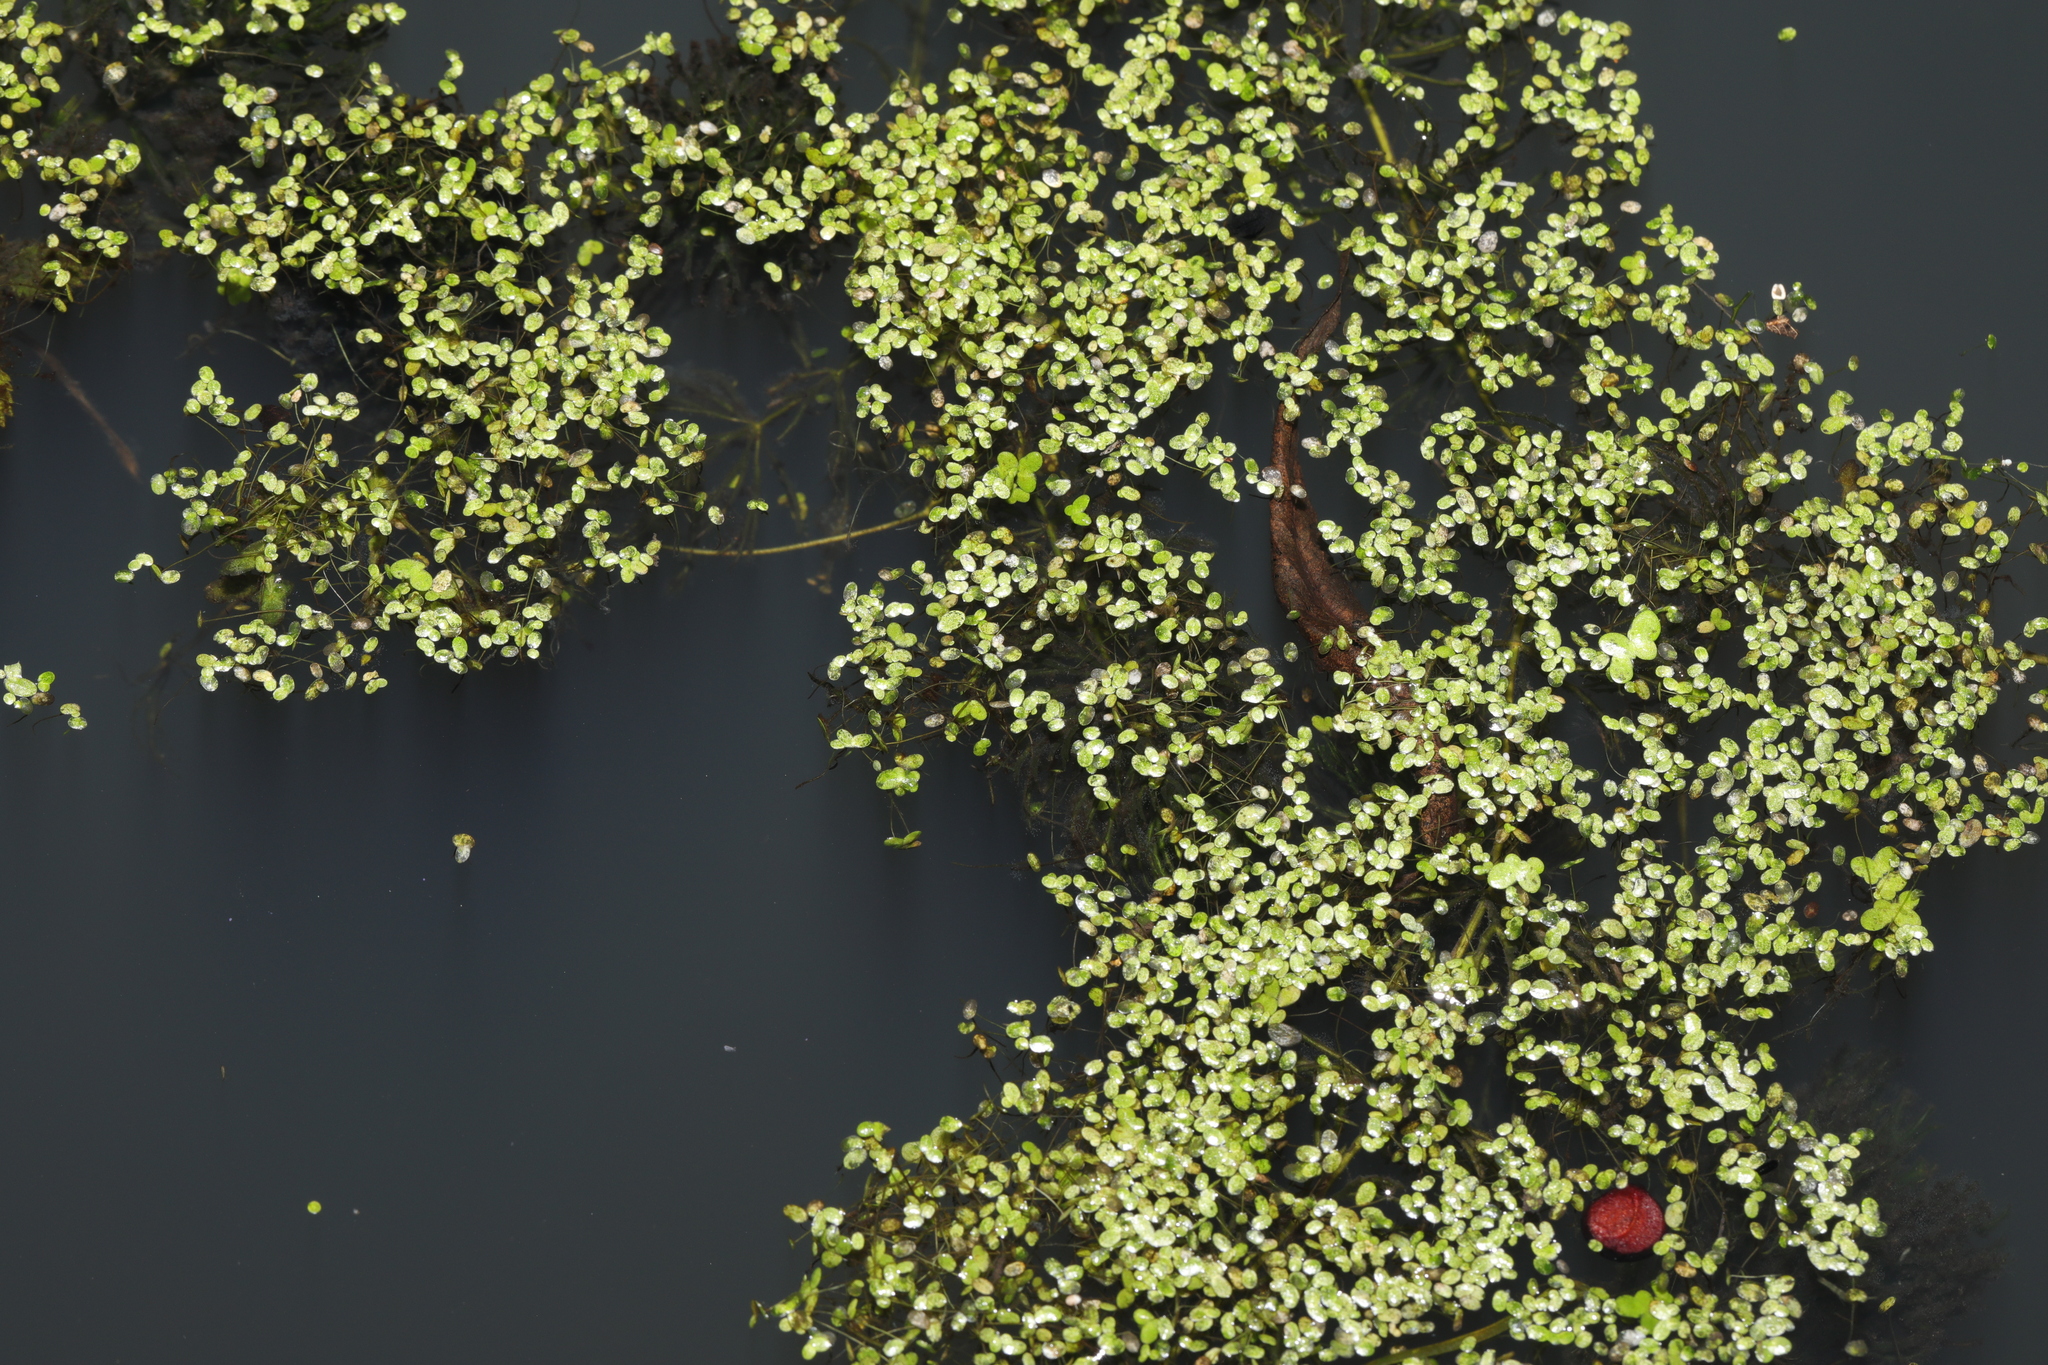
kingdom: Plantae
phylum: Tracheophyta
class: Liliopsida
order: Alismatales
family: Araceae
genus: Lemna
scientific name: Lemna minor
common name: Common duckweed
